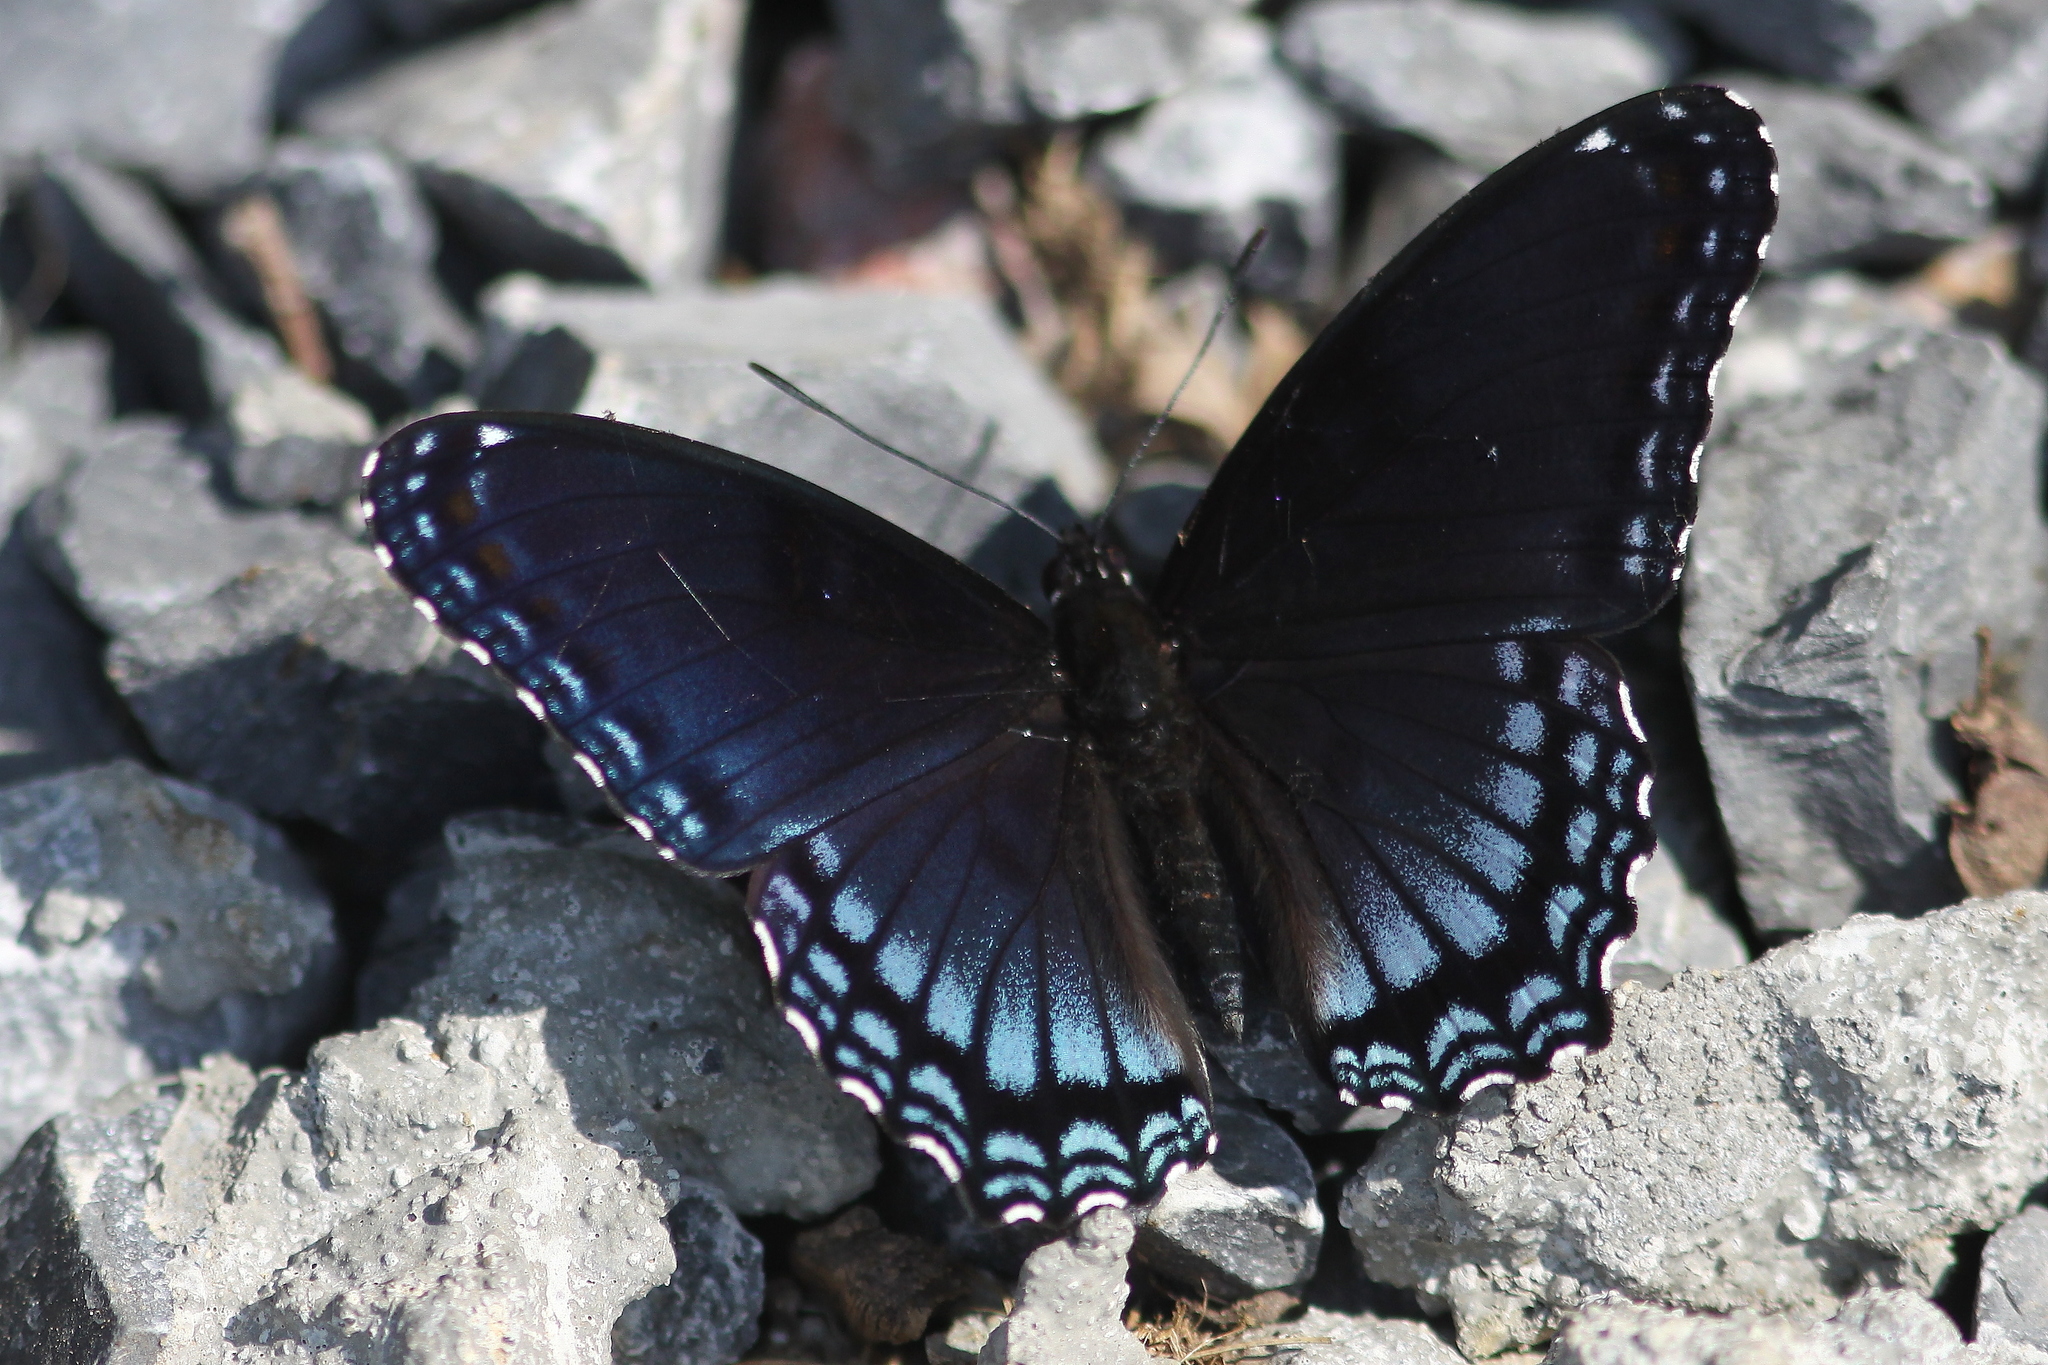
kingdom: Animalia
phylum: Arthropoda
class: Insecta
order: Lepidoptera
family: Nymphalidae
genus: Limenitis
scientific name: Limenitis astyanax
